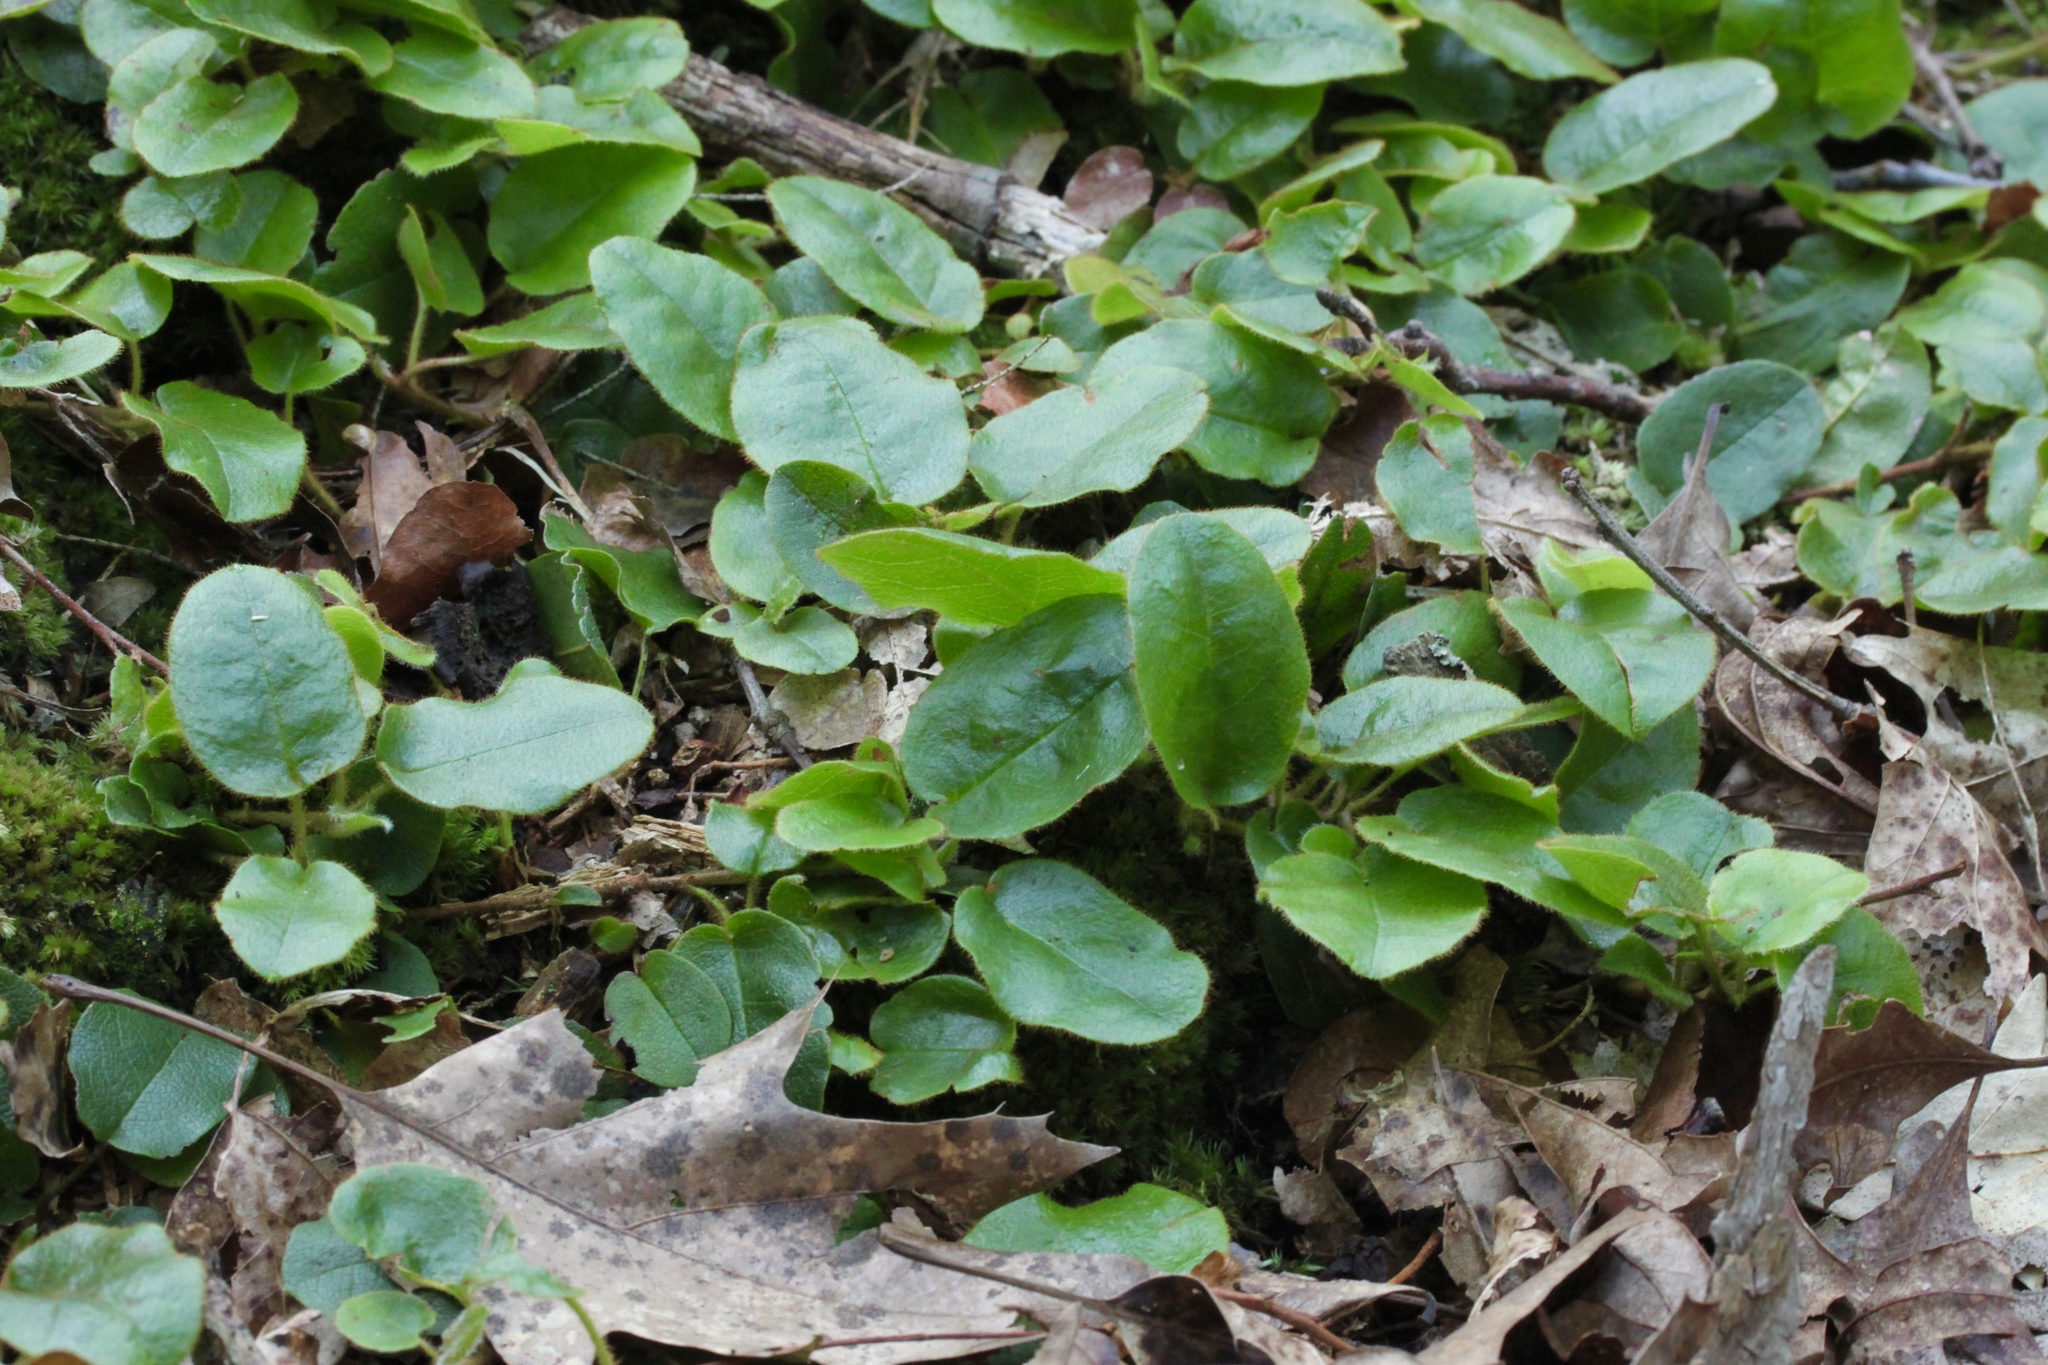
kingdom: Plantae
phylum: Tracheophyta
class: Magnoliopsida
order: Ericales
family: Ericaceae
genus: Epigaea
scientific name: Epigaea repens
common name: Gravelroot
